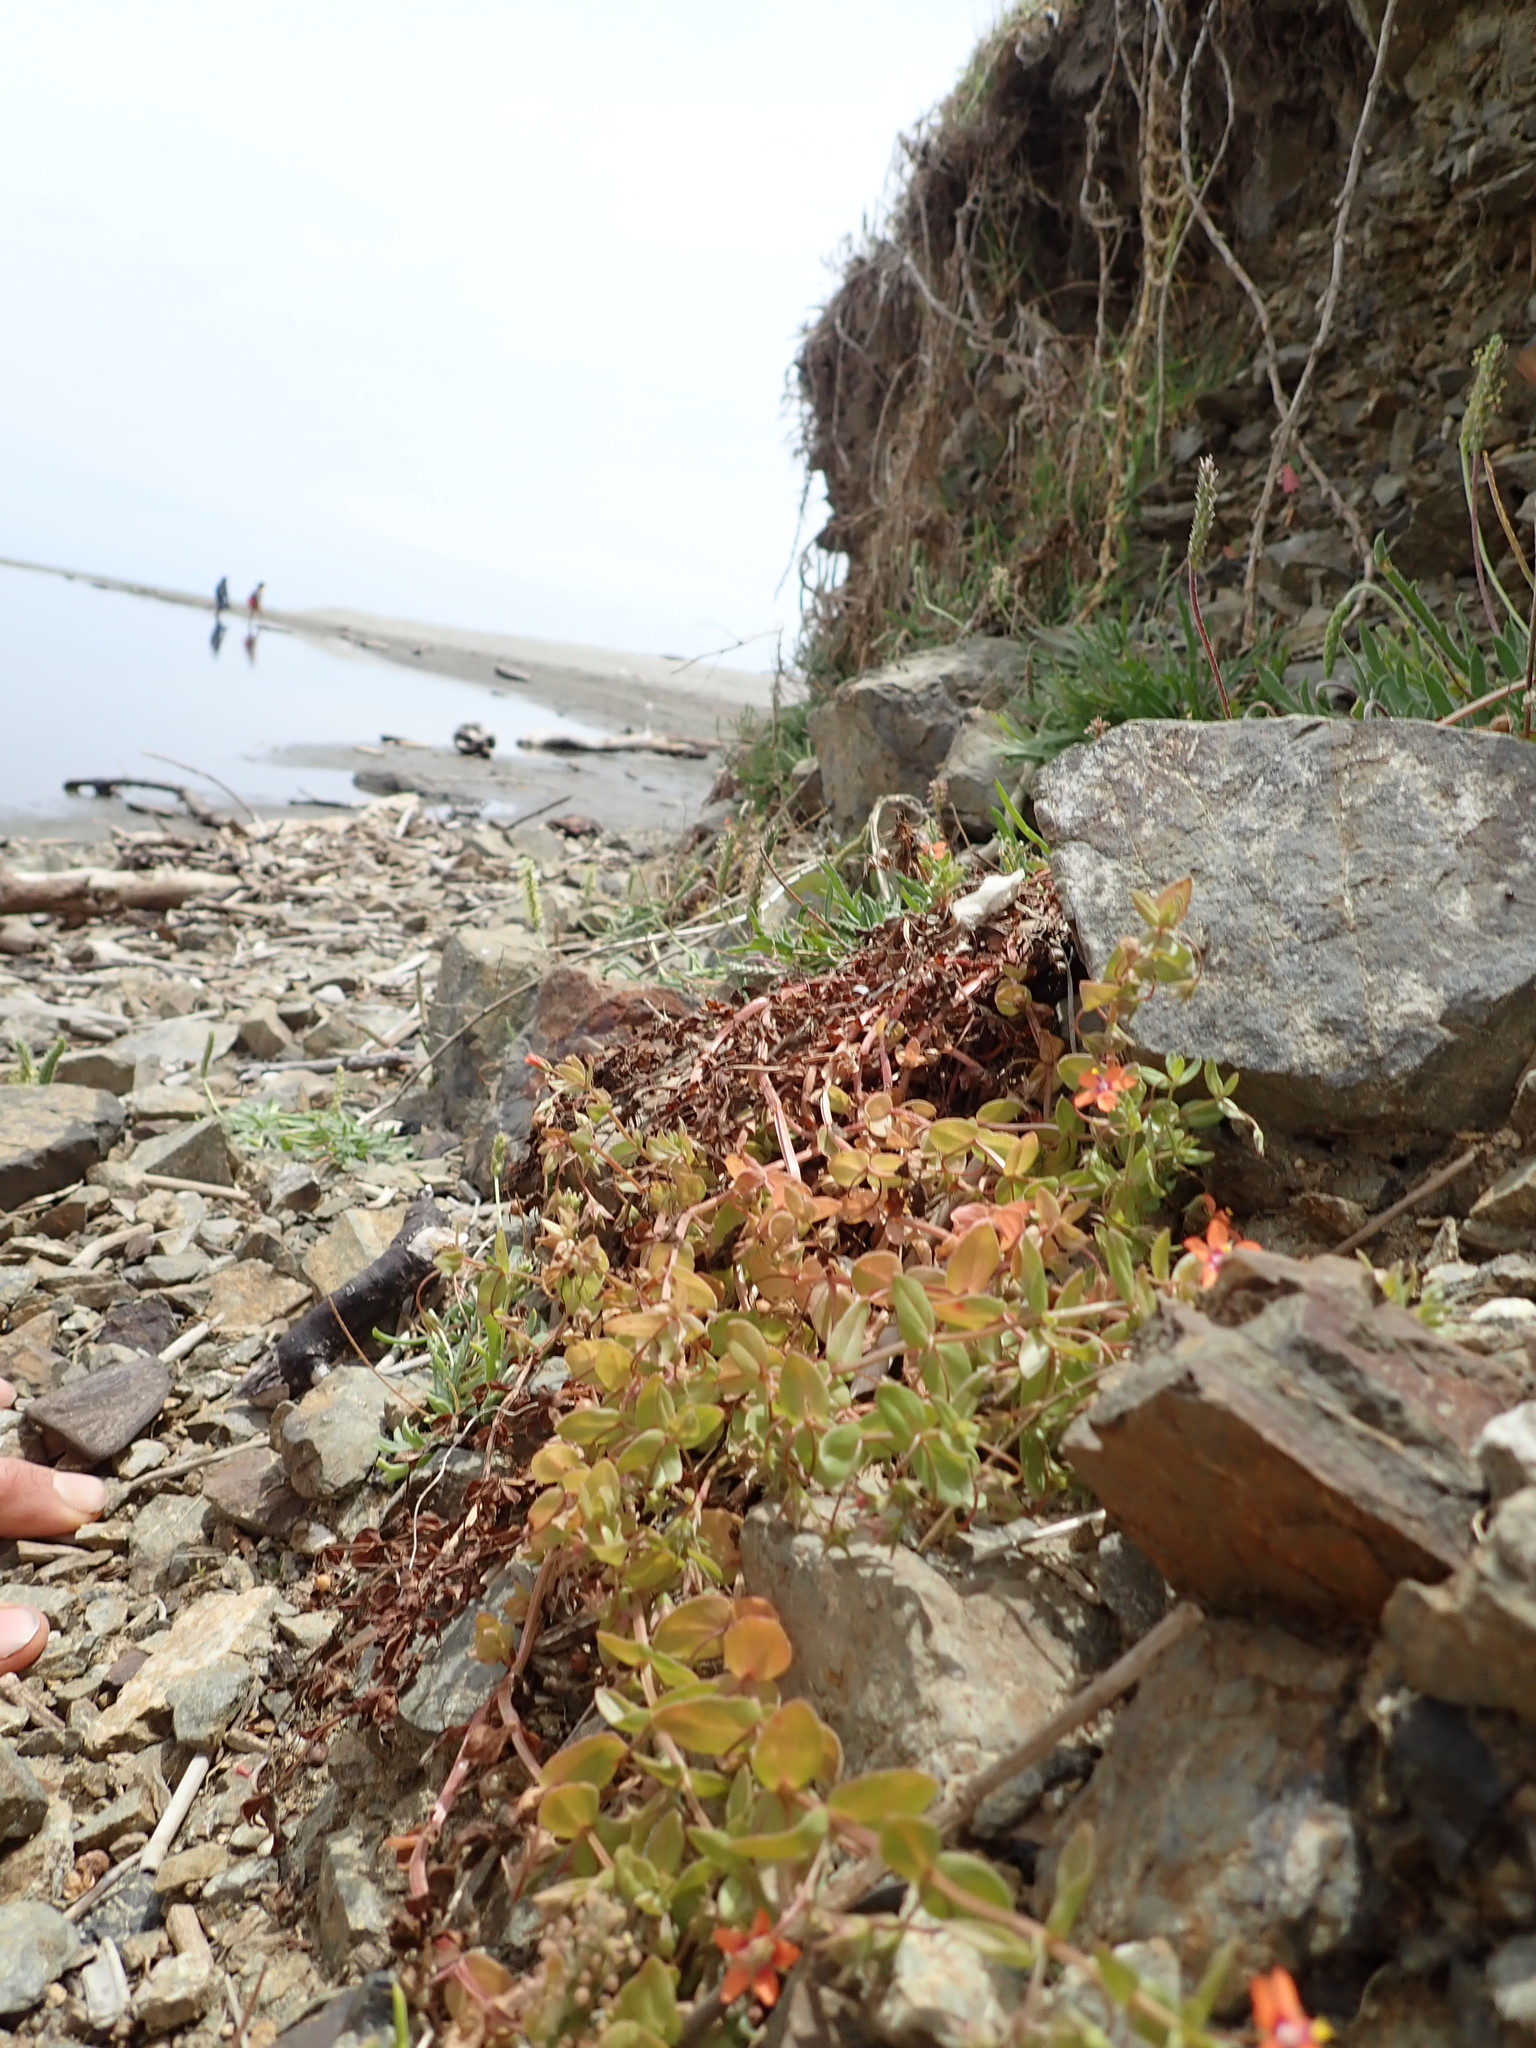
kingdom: Plantae
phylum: Tracheophyta
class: Magnoliopsida
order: Ericales
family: Primulaceae
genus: Lysimachia
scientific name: Lysimachia arvensis
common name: Scarlet pimpernel
